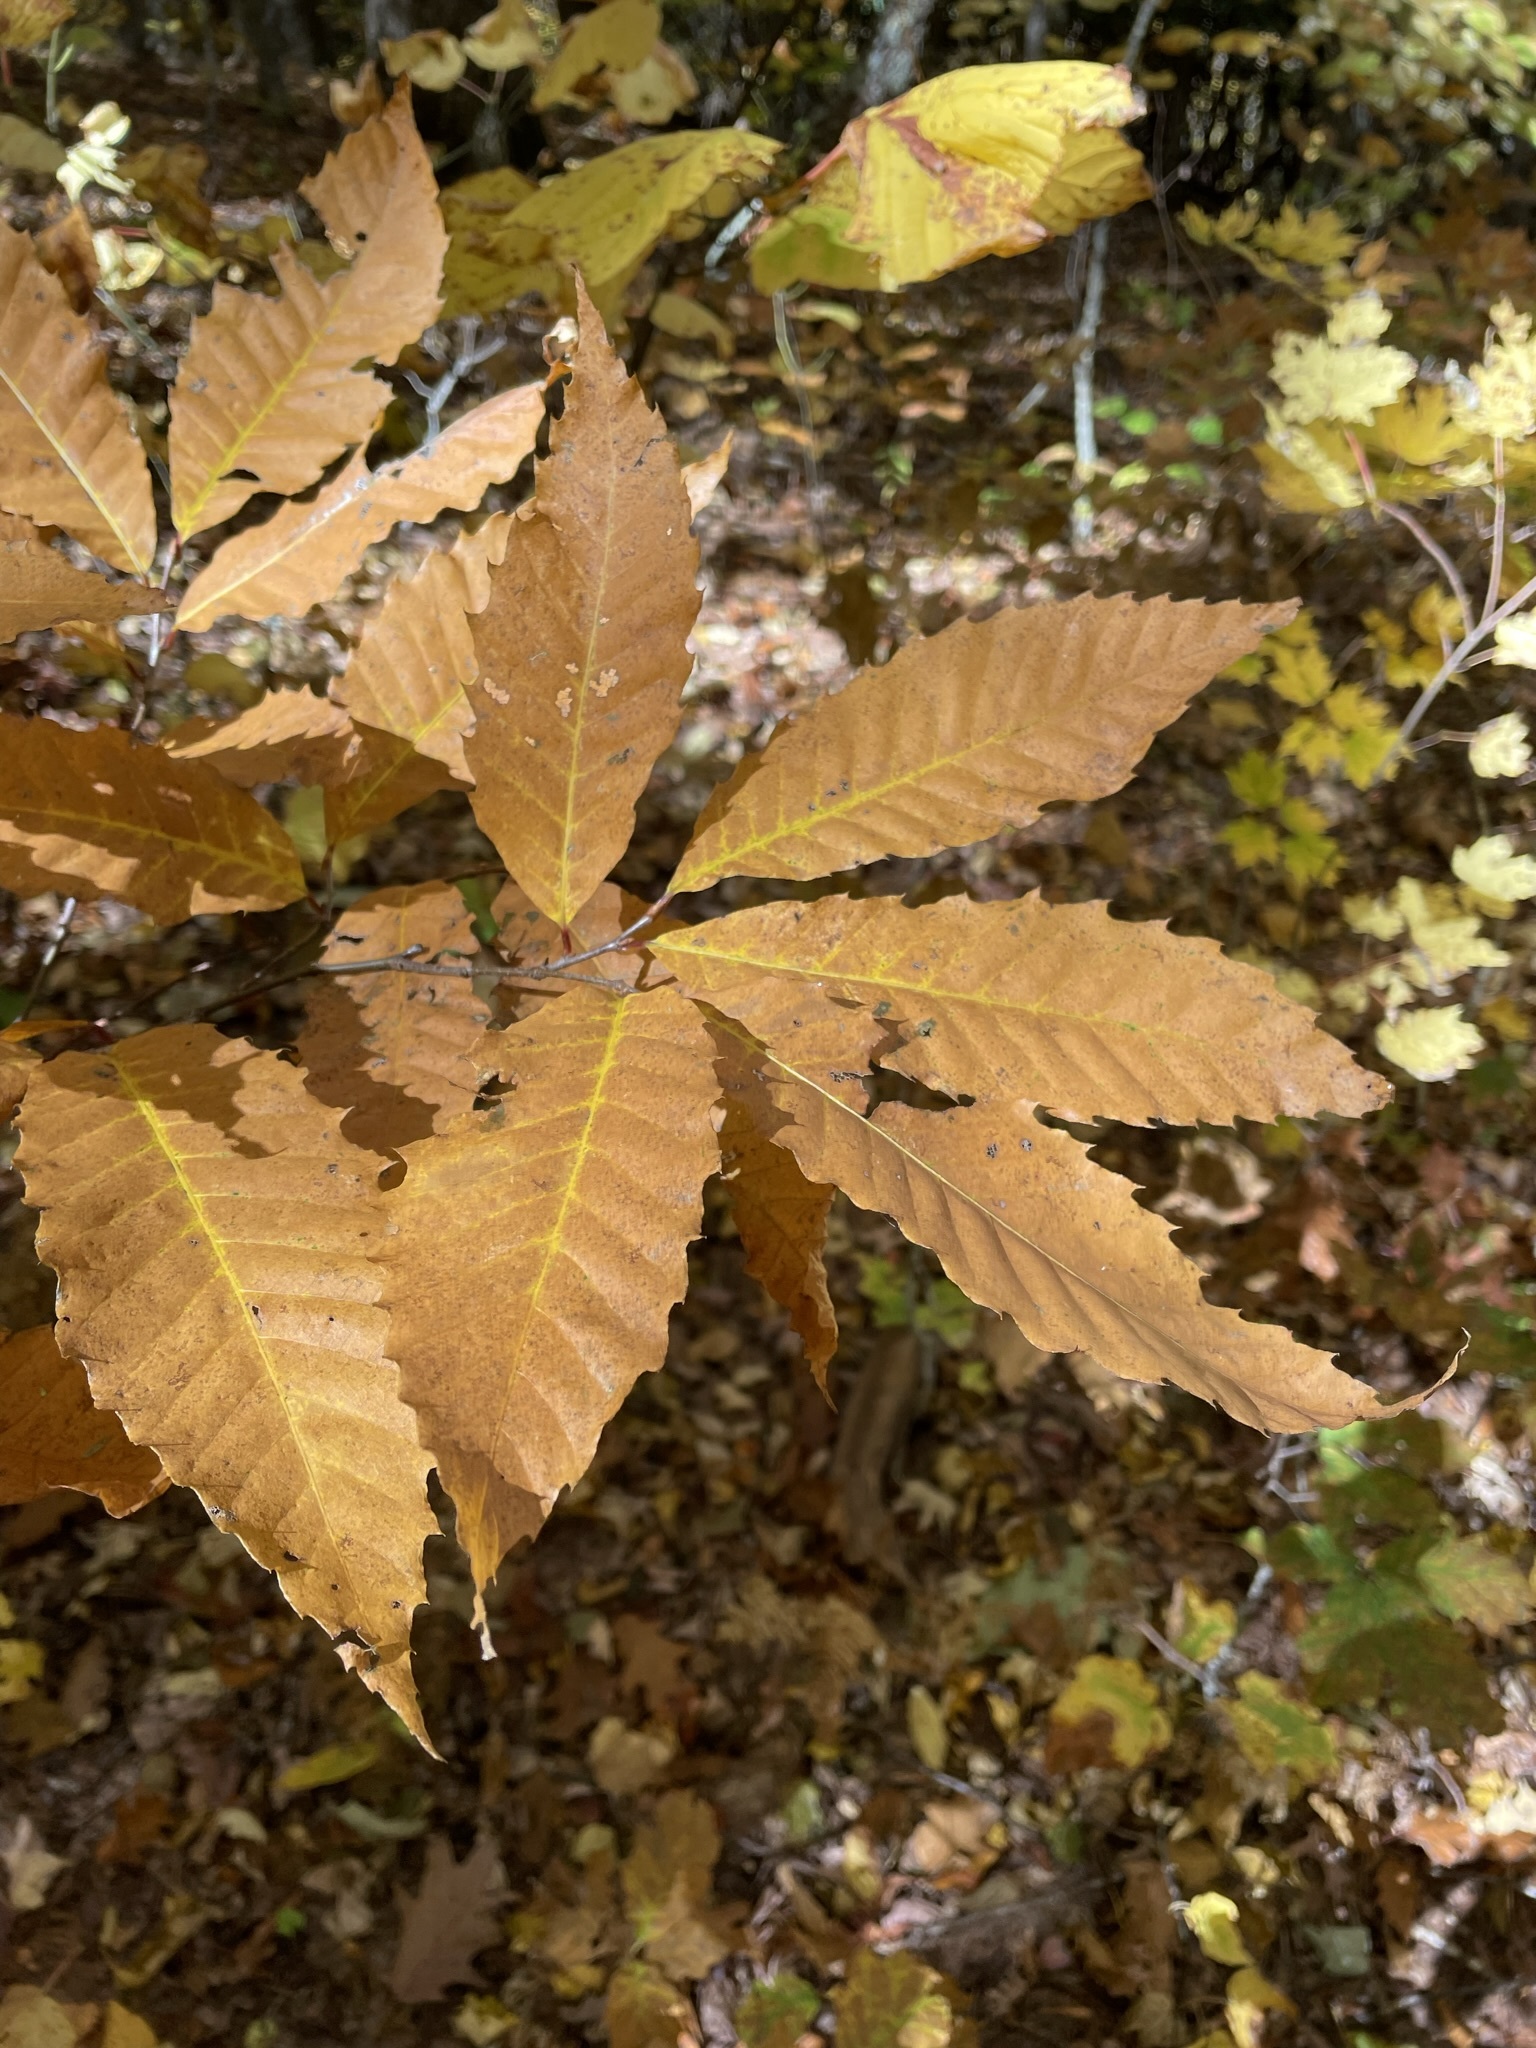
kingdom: Plantae
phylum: Tracheophyta
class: Magnoliopsida
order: Fagales
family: Fagaceae
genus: Castanea
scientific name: Castanea dentata
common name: American chestnut
